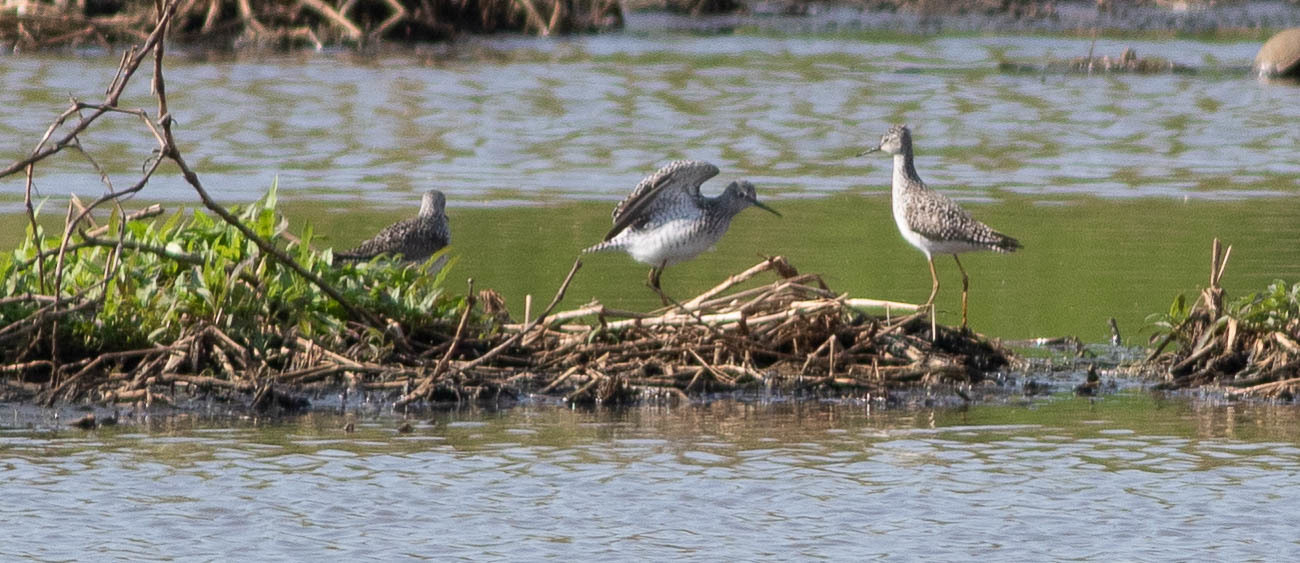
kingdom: Animalia
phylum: Chordata
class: Aves
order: Charadriiformes
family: Scolopacidae
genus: Tringa
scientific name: Tringa flavipes
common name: Lesser yellowlegs
